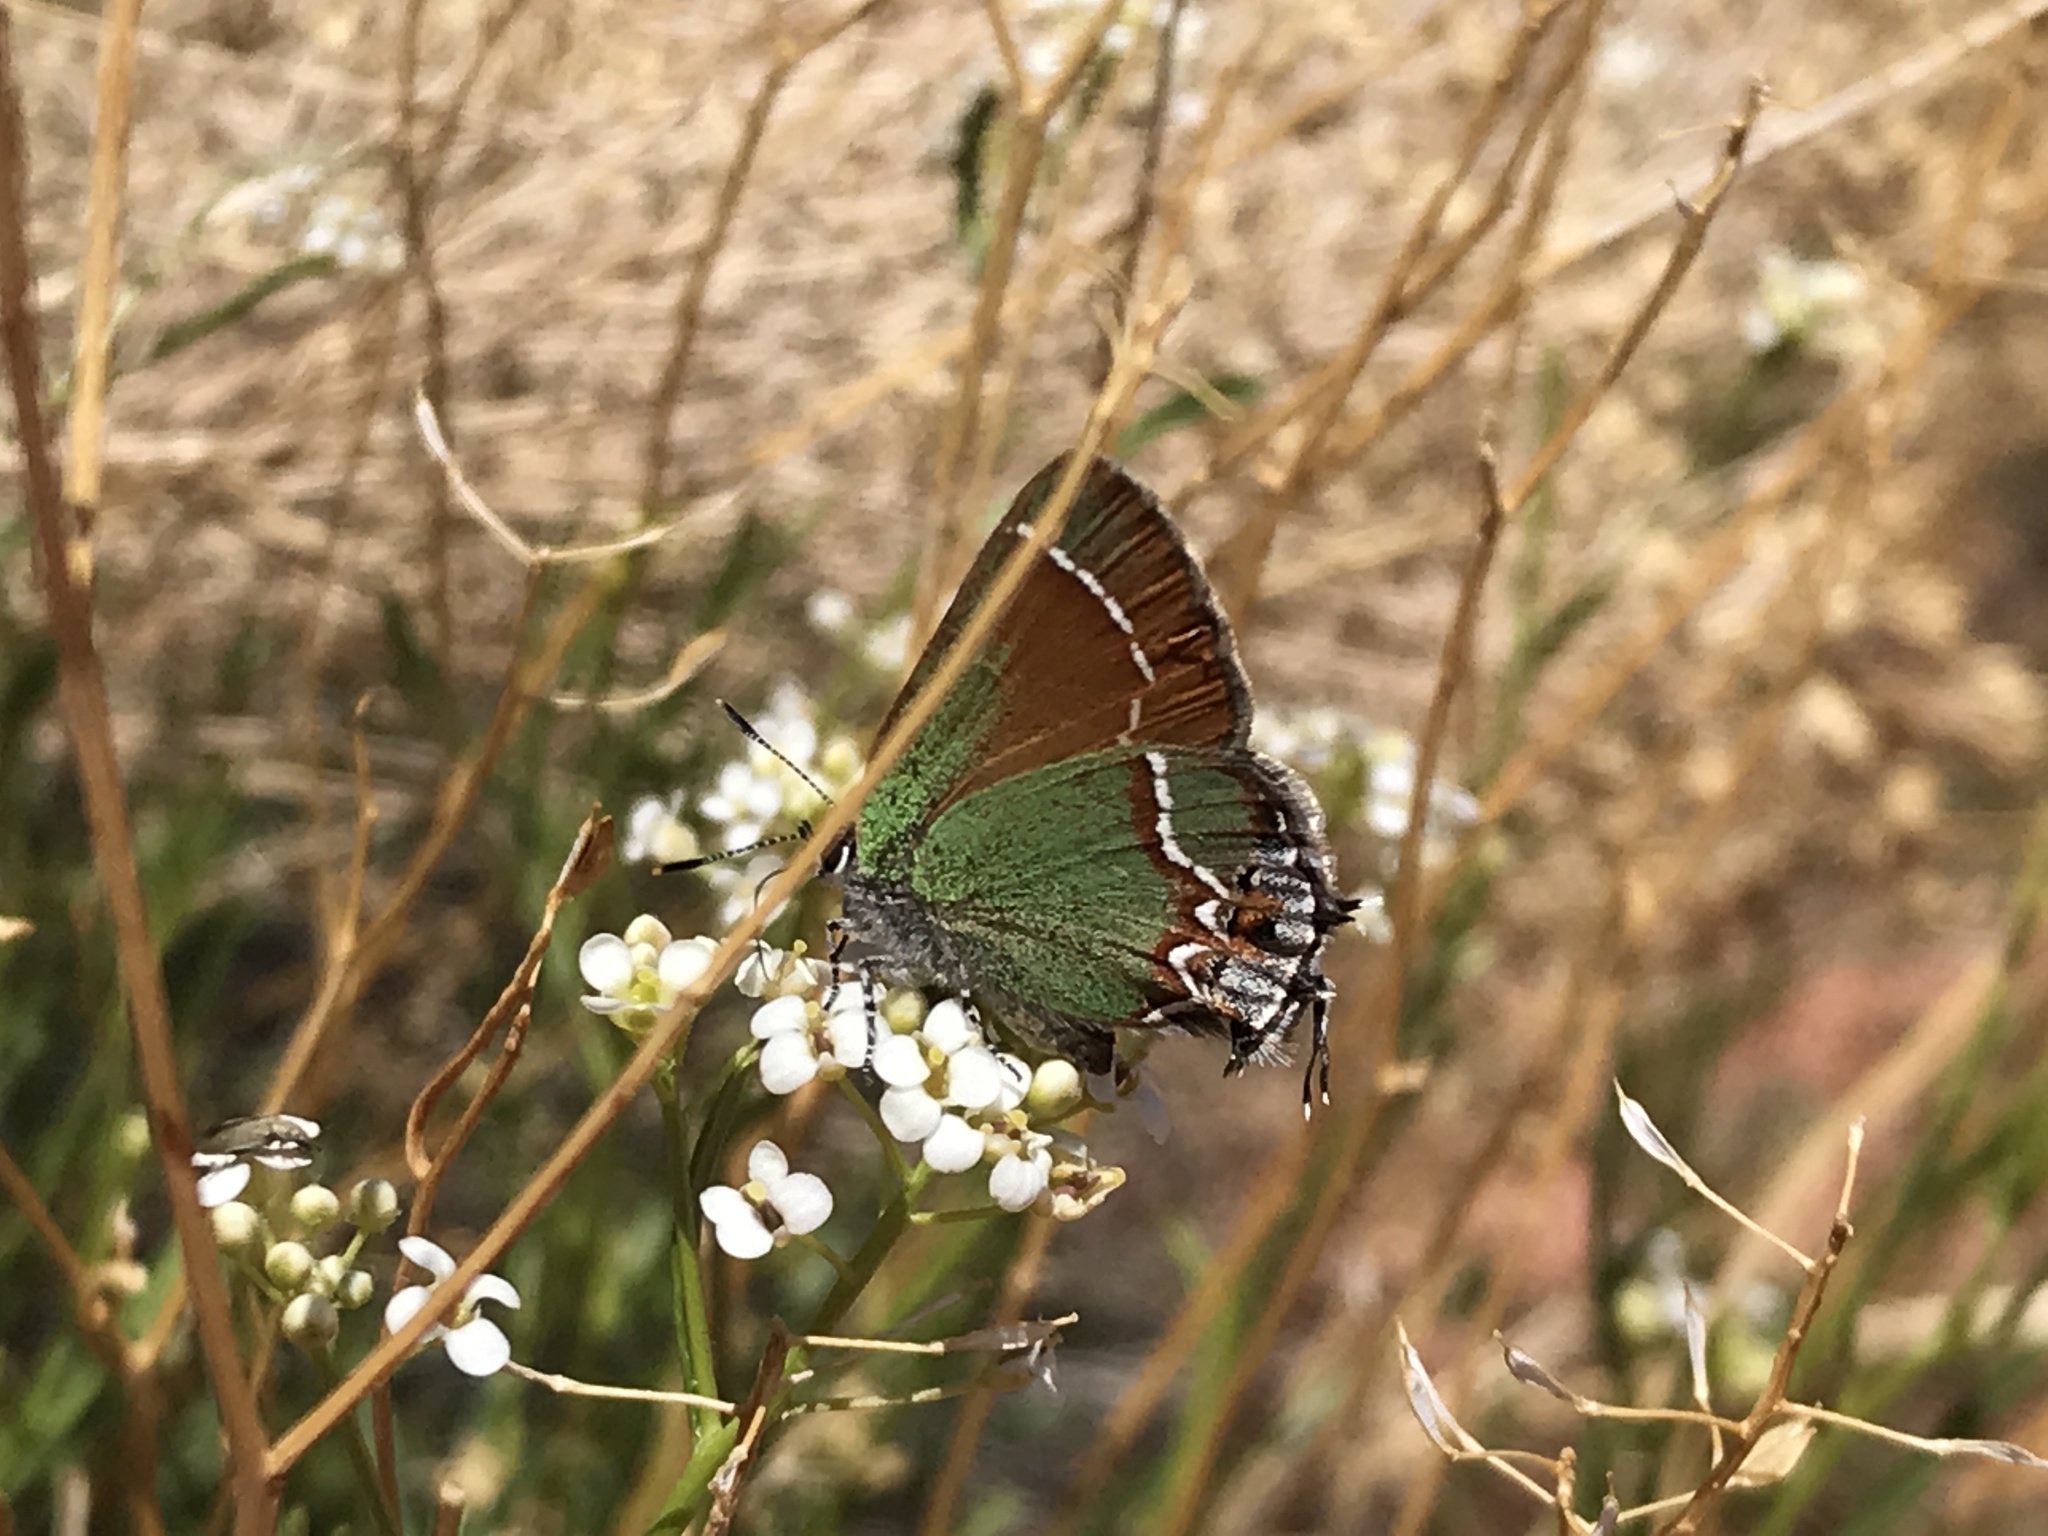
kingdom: Animalia
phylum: Arthropoda
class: Insecta
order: Lepidoptera
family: Lycaenidae
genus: Mitoura
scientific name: Mitoura siva
